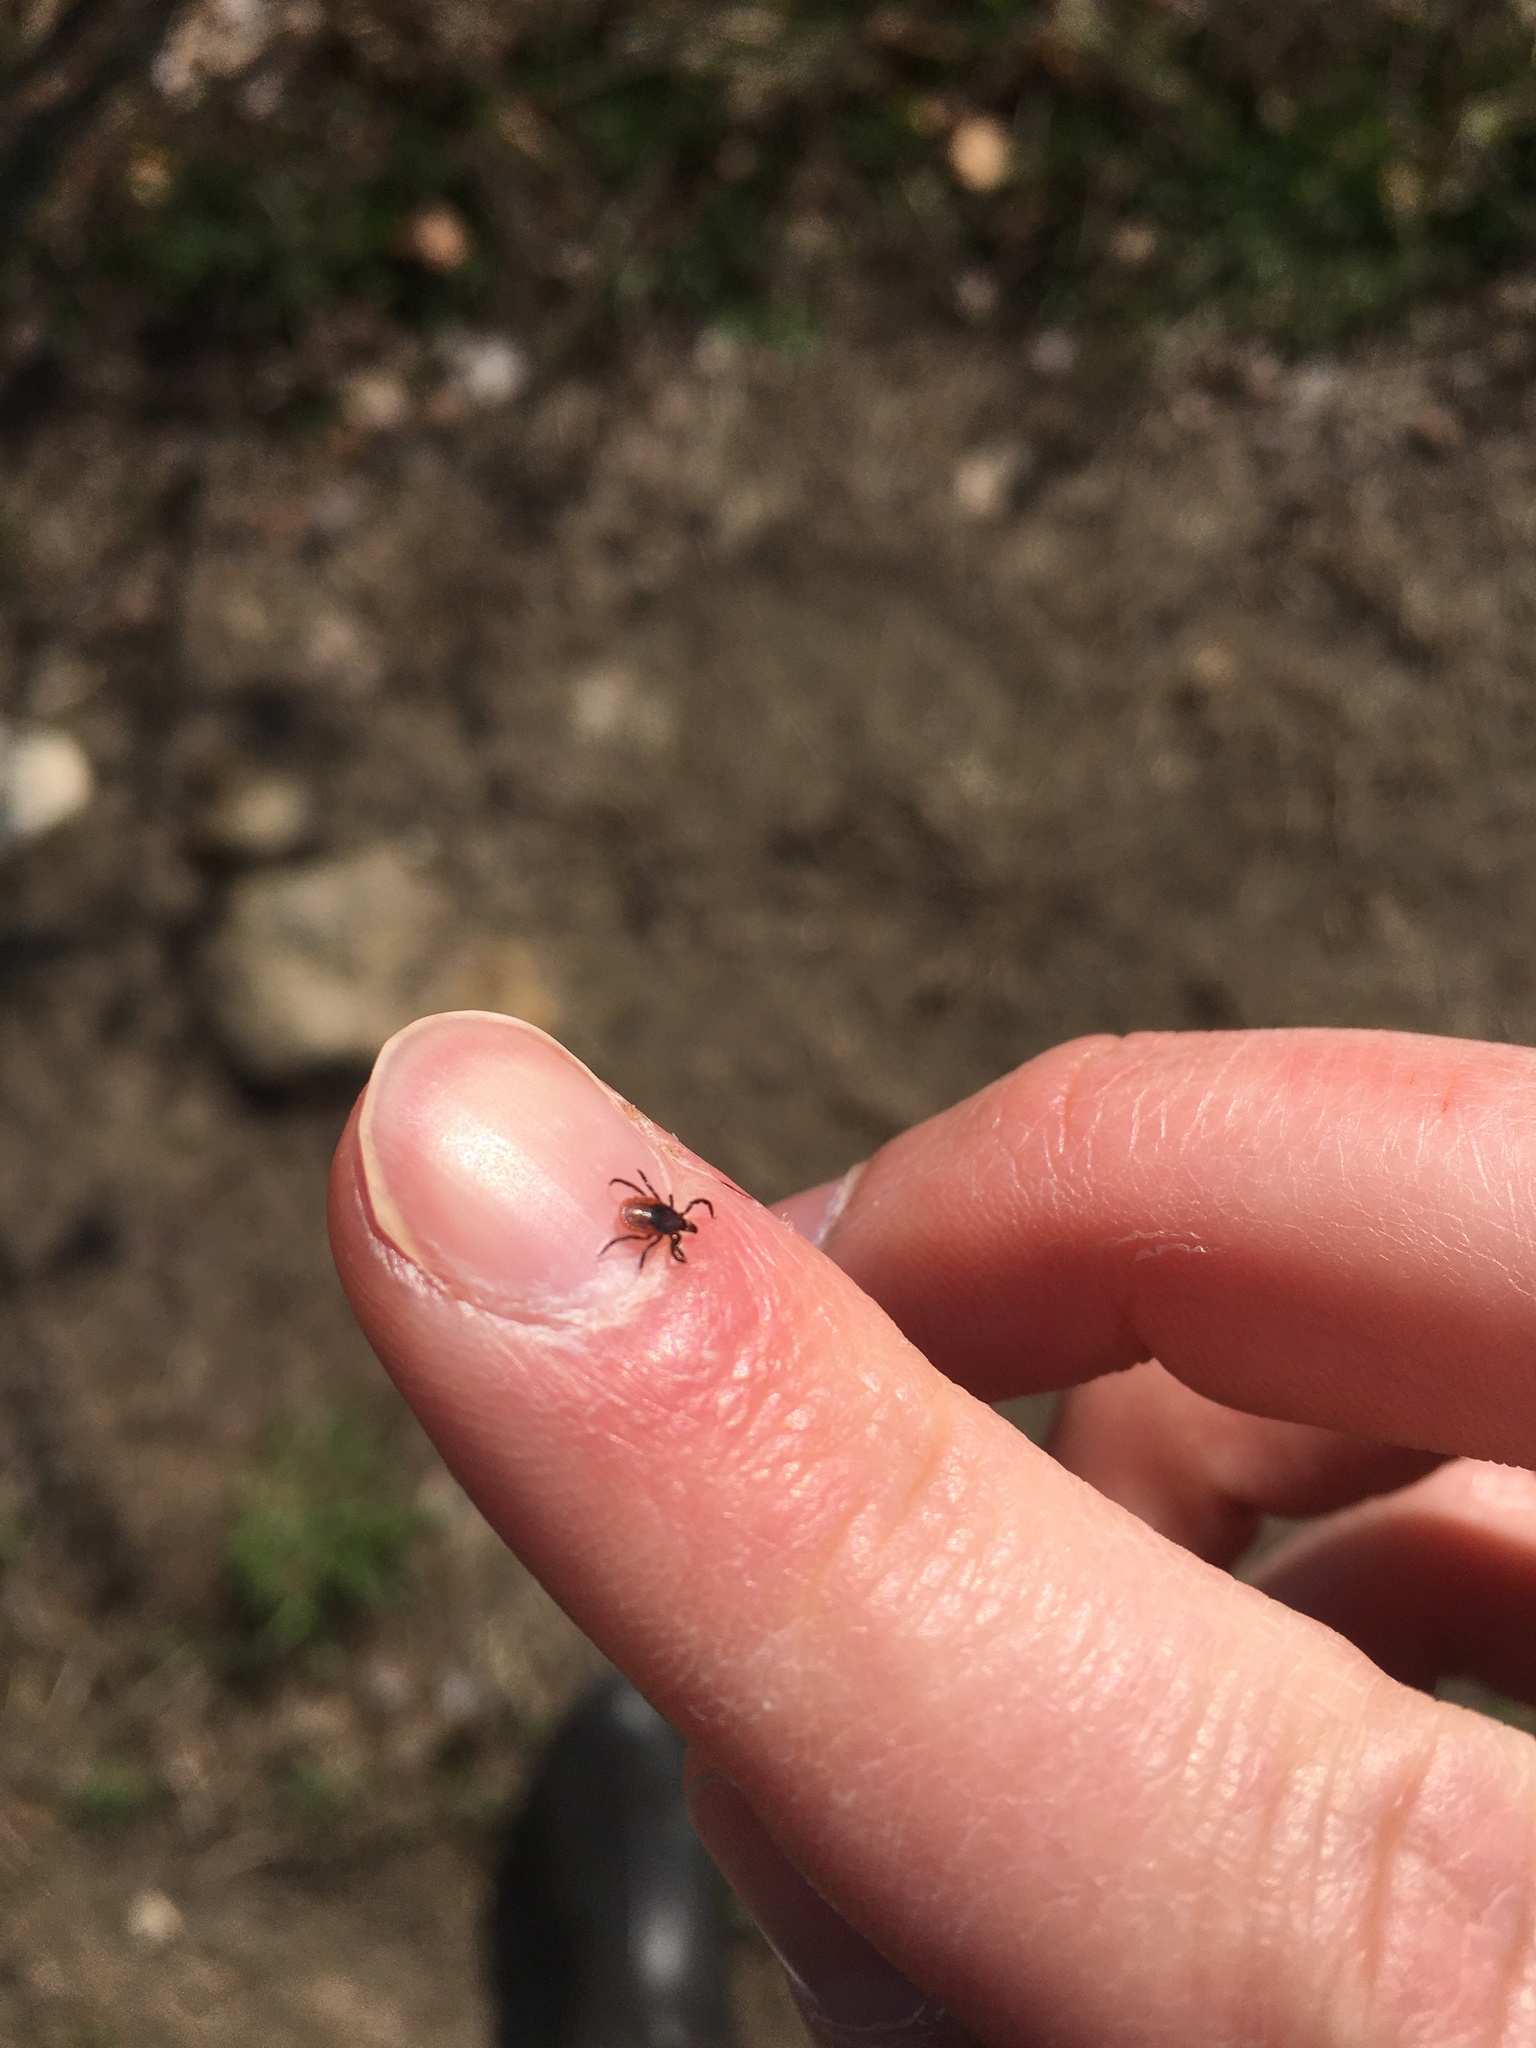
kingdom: Animalia
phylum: Arthropoda
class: Arachnida
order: Ixodida
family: Ixodidae
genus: Ixodes
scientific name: Ixodes scapularis
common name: Black legged tick
